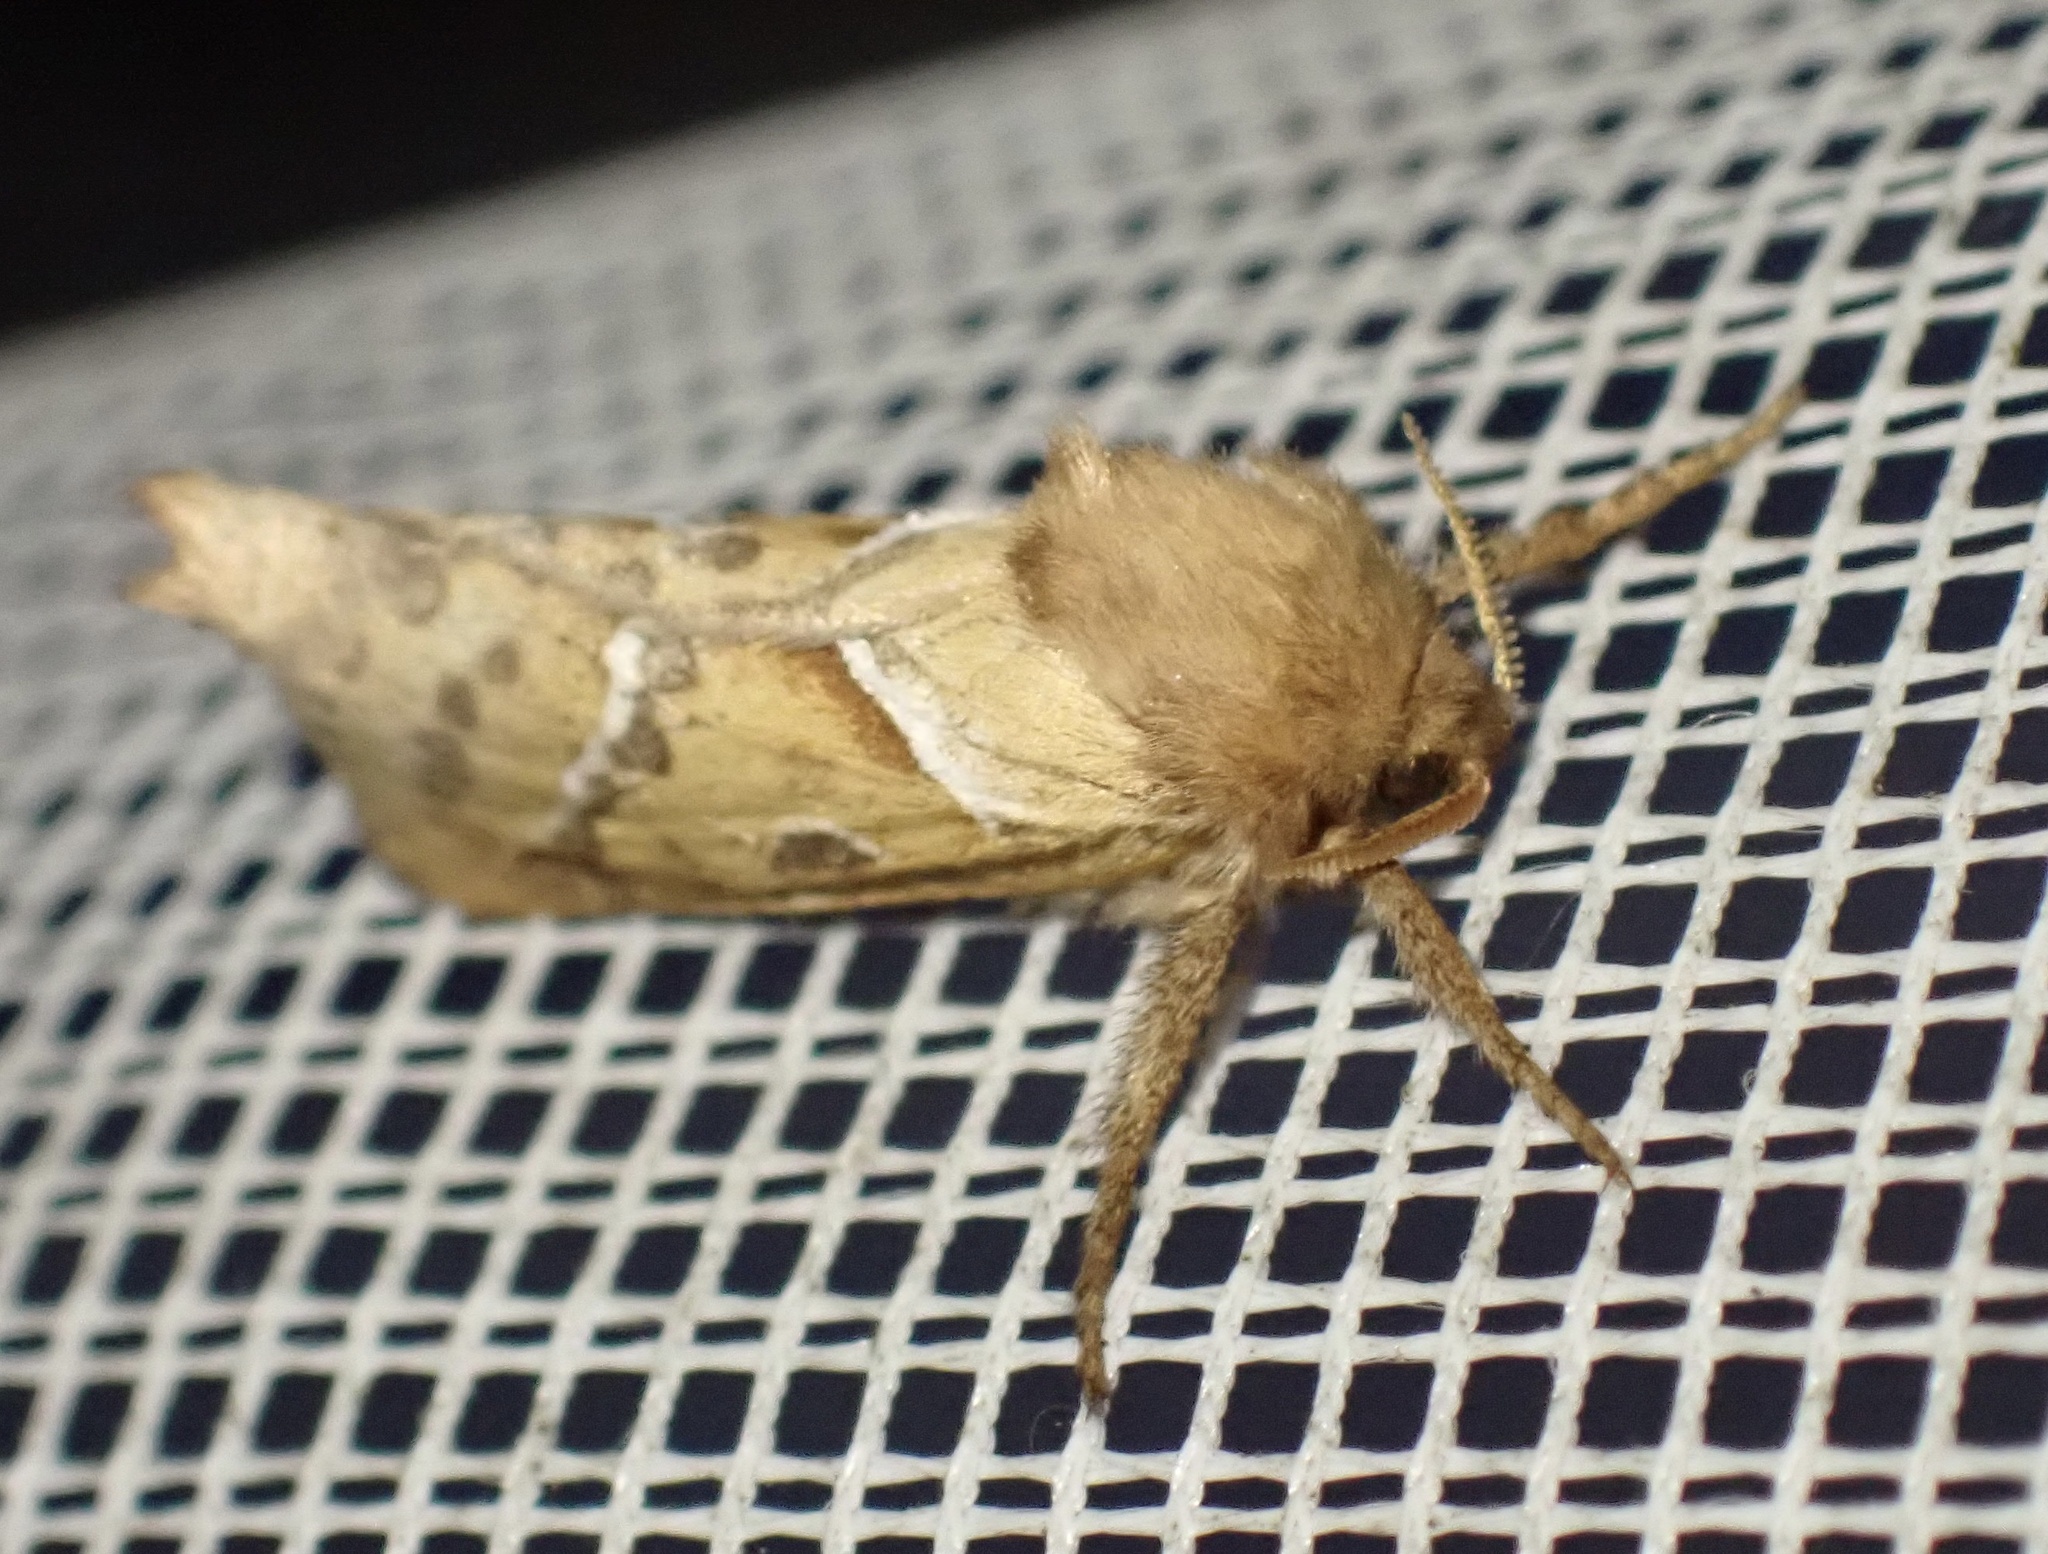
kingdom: Animalia
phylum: Arthropoda
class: Insecta
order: Lepidoptera
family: Hepialidae
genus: Triodia
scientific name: Triodia sylvina
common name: Orange swift
